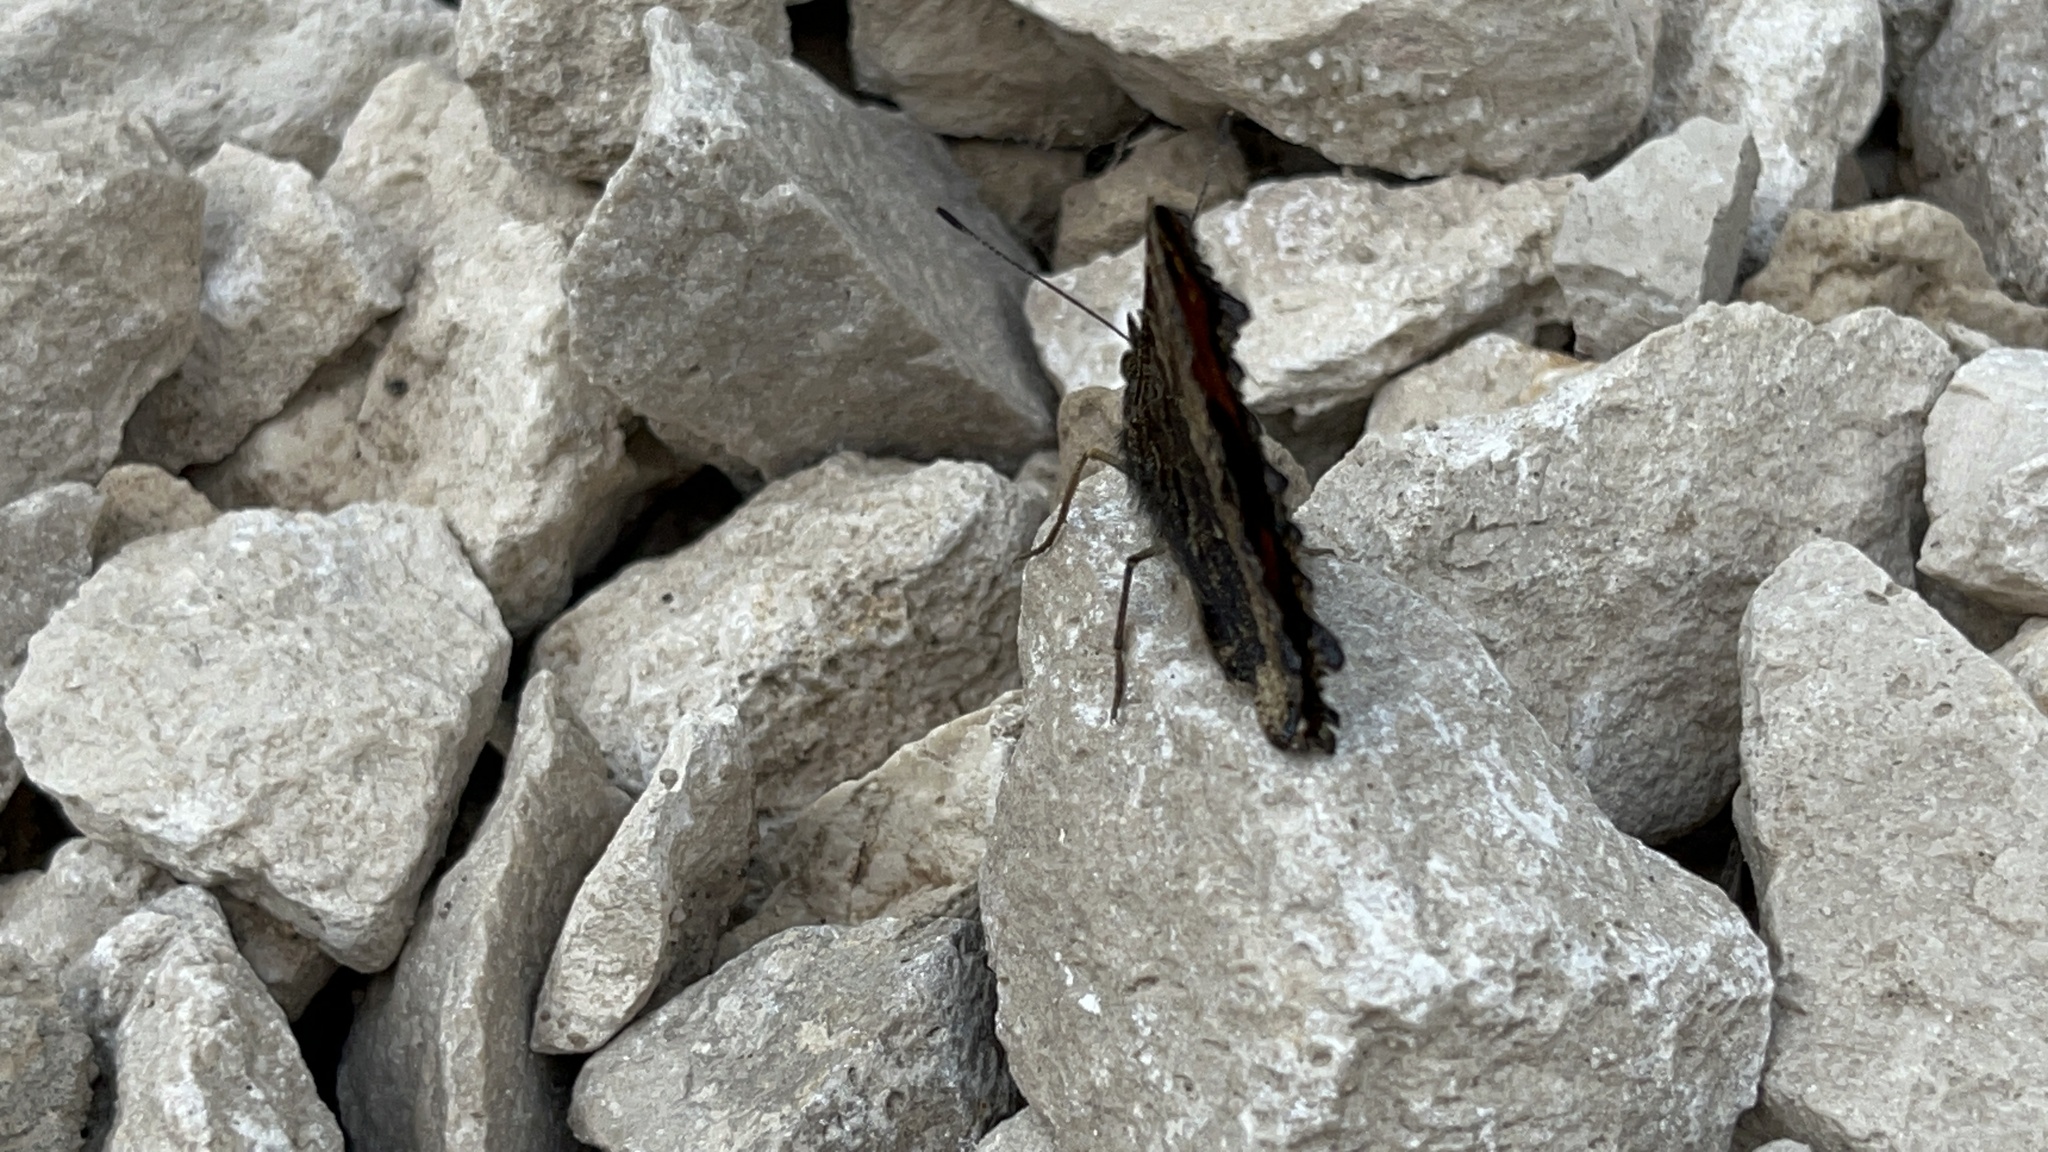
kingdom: Animalia
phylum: Arthropoda
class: Insecta
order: Lepidoptera
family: Nymphalidae
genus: Nymphalis
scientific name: Nymphalis xanthomelas
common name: Scarce tortoiseshell
